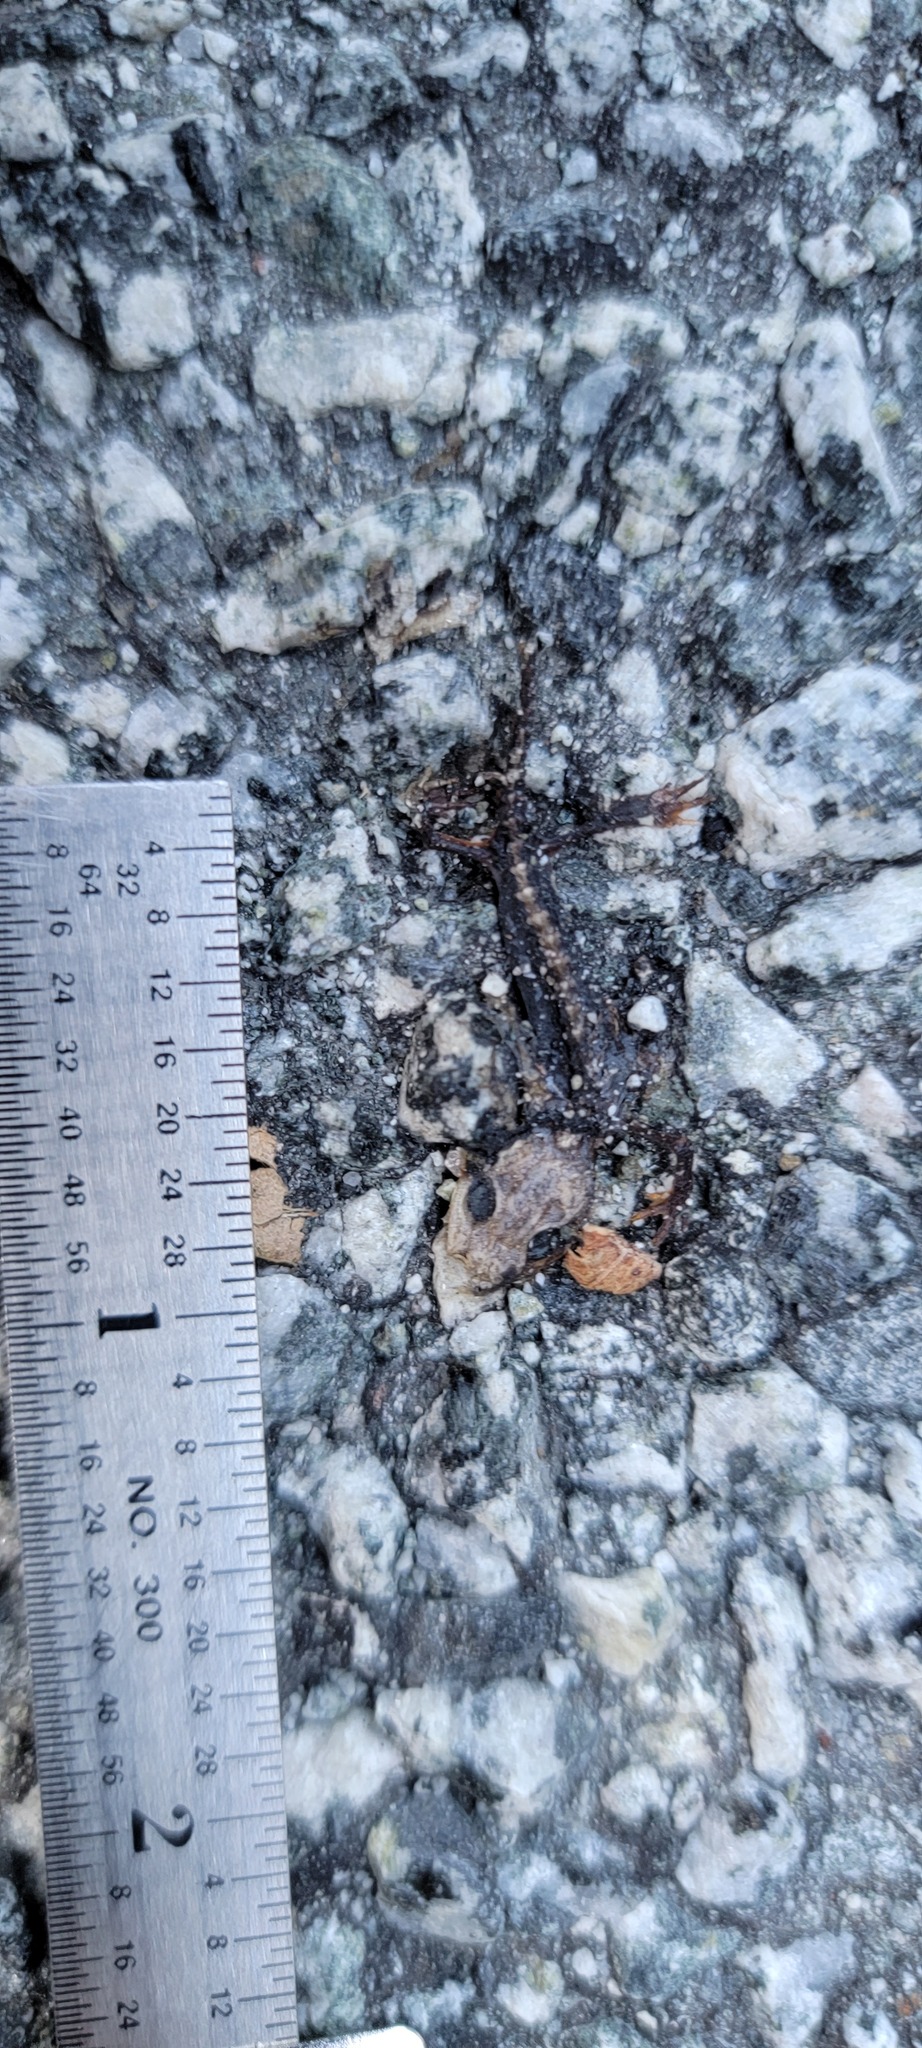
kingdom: Animalia
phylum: Chordata
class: Amphibia
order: Caudata
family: Salamandridae
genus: Taricha
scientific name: Taricha
